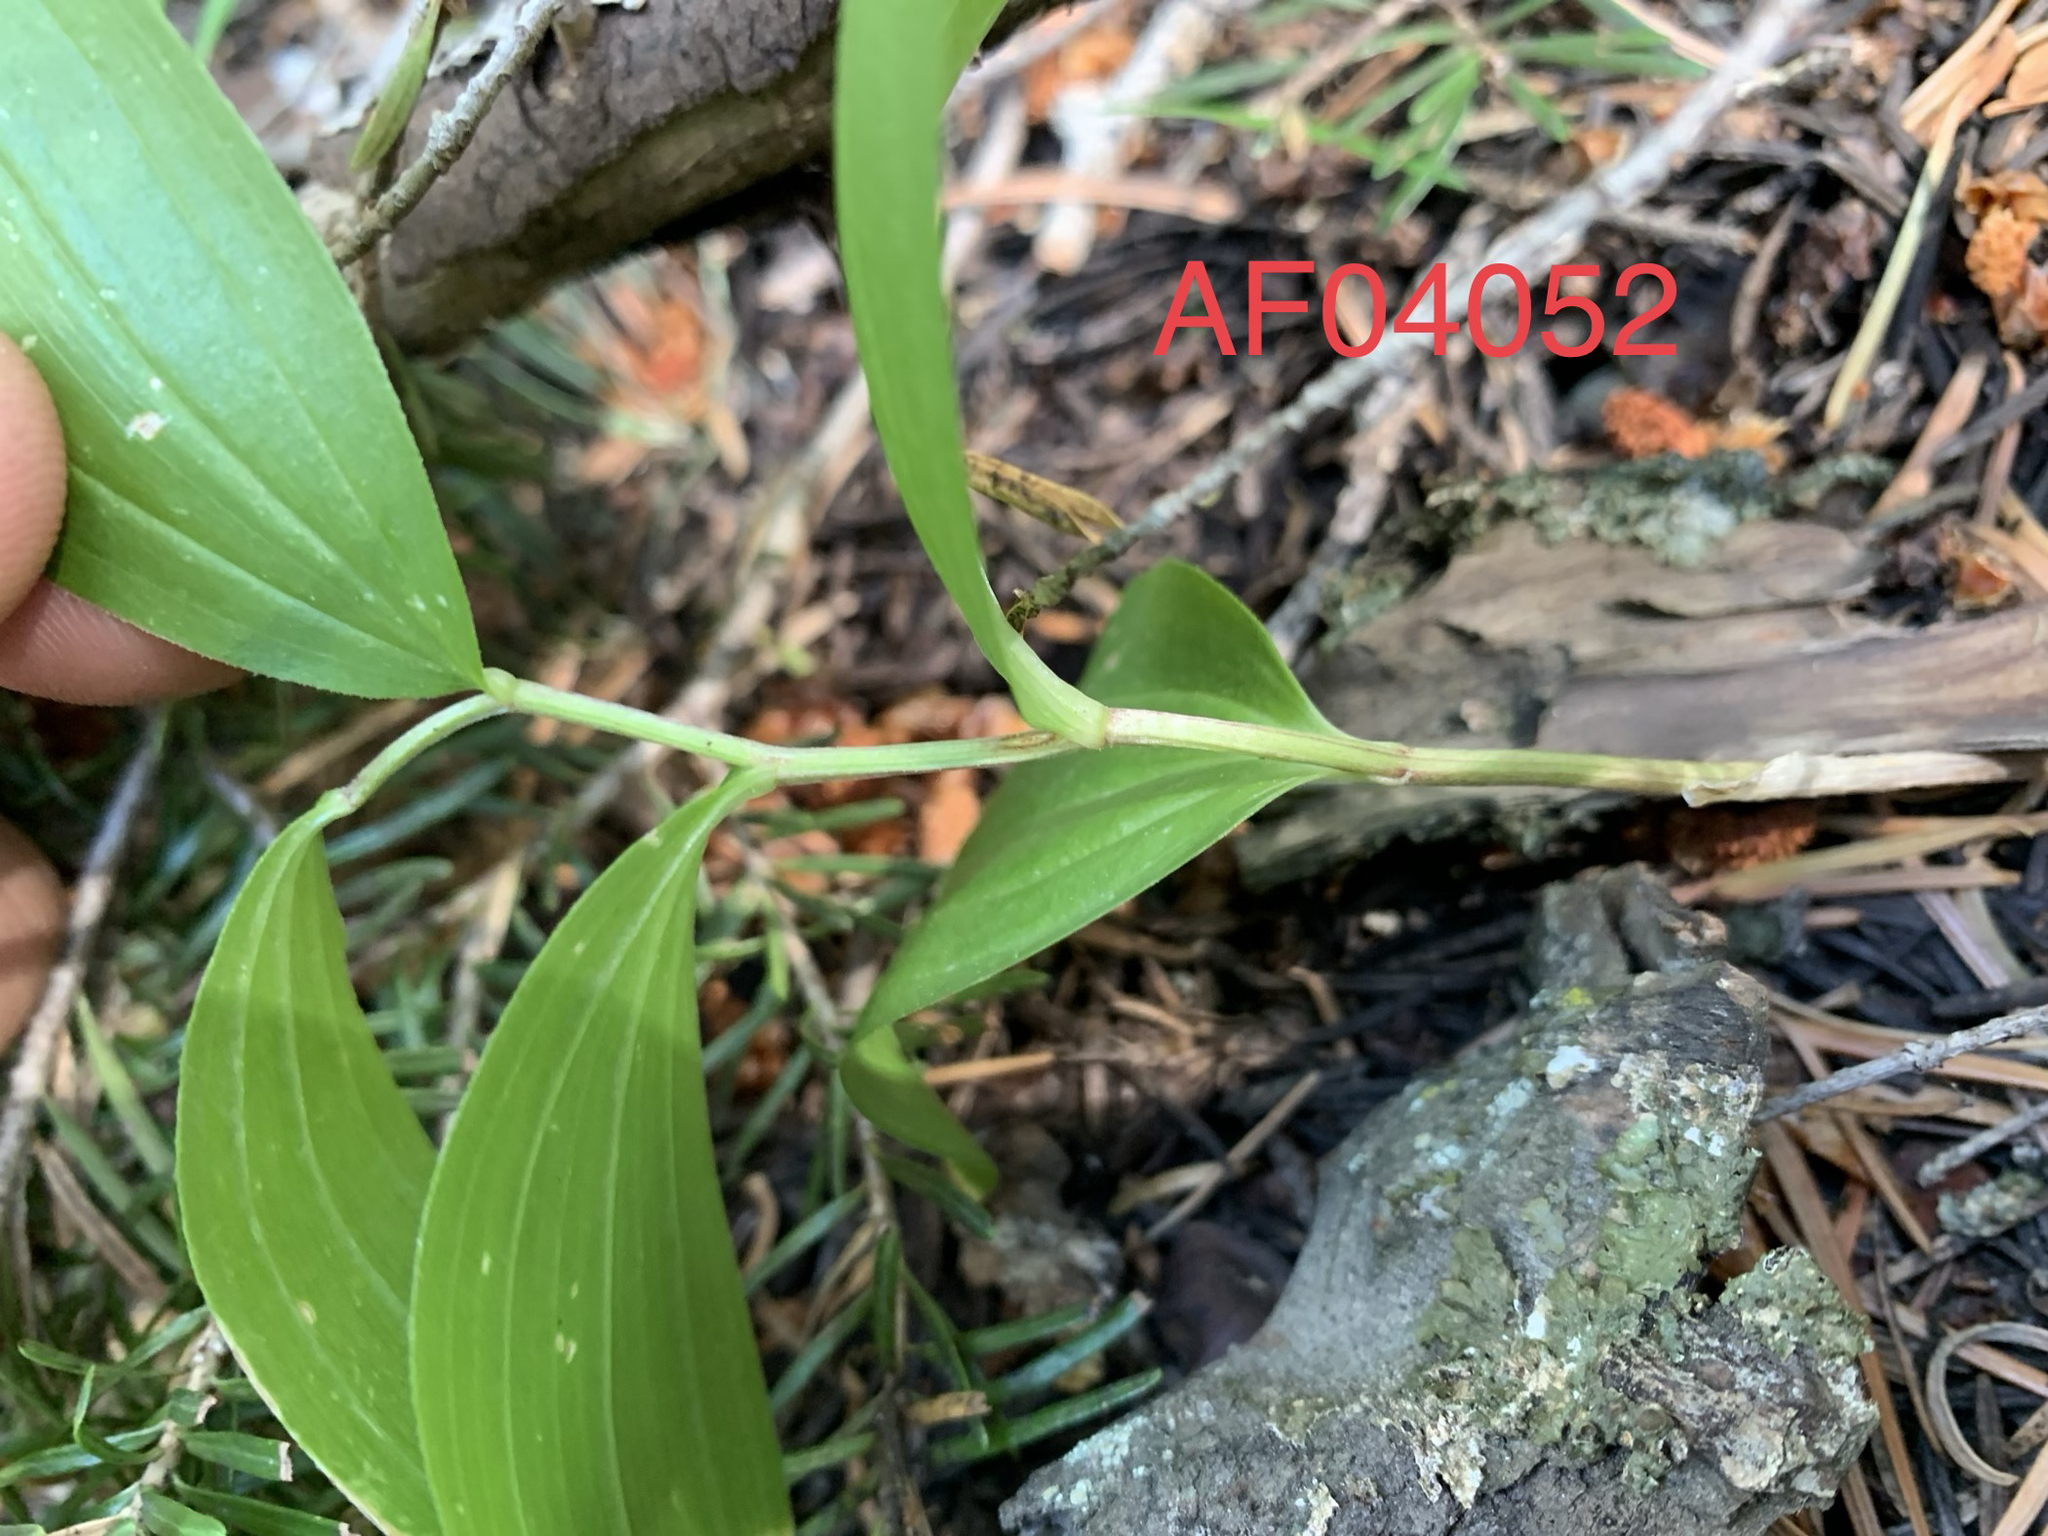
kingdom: Plantae
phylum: Tracheophyta
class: Liliopsida
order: Asparagales
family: Asparagaceae
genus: Maianthemum
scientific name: Maianthemum racemosum
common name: False spikenard
